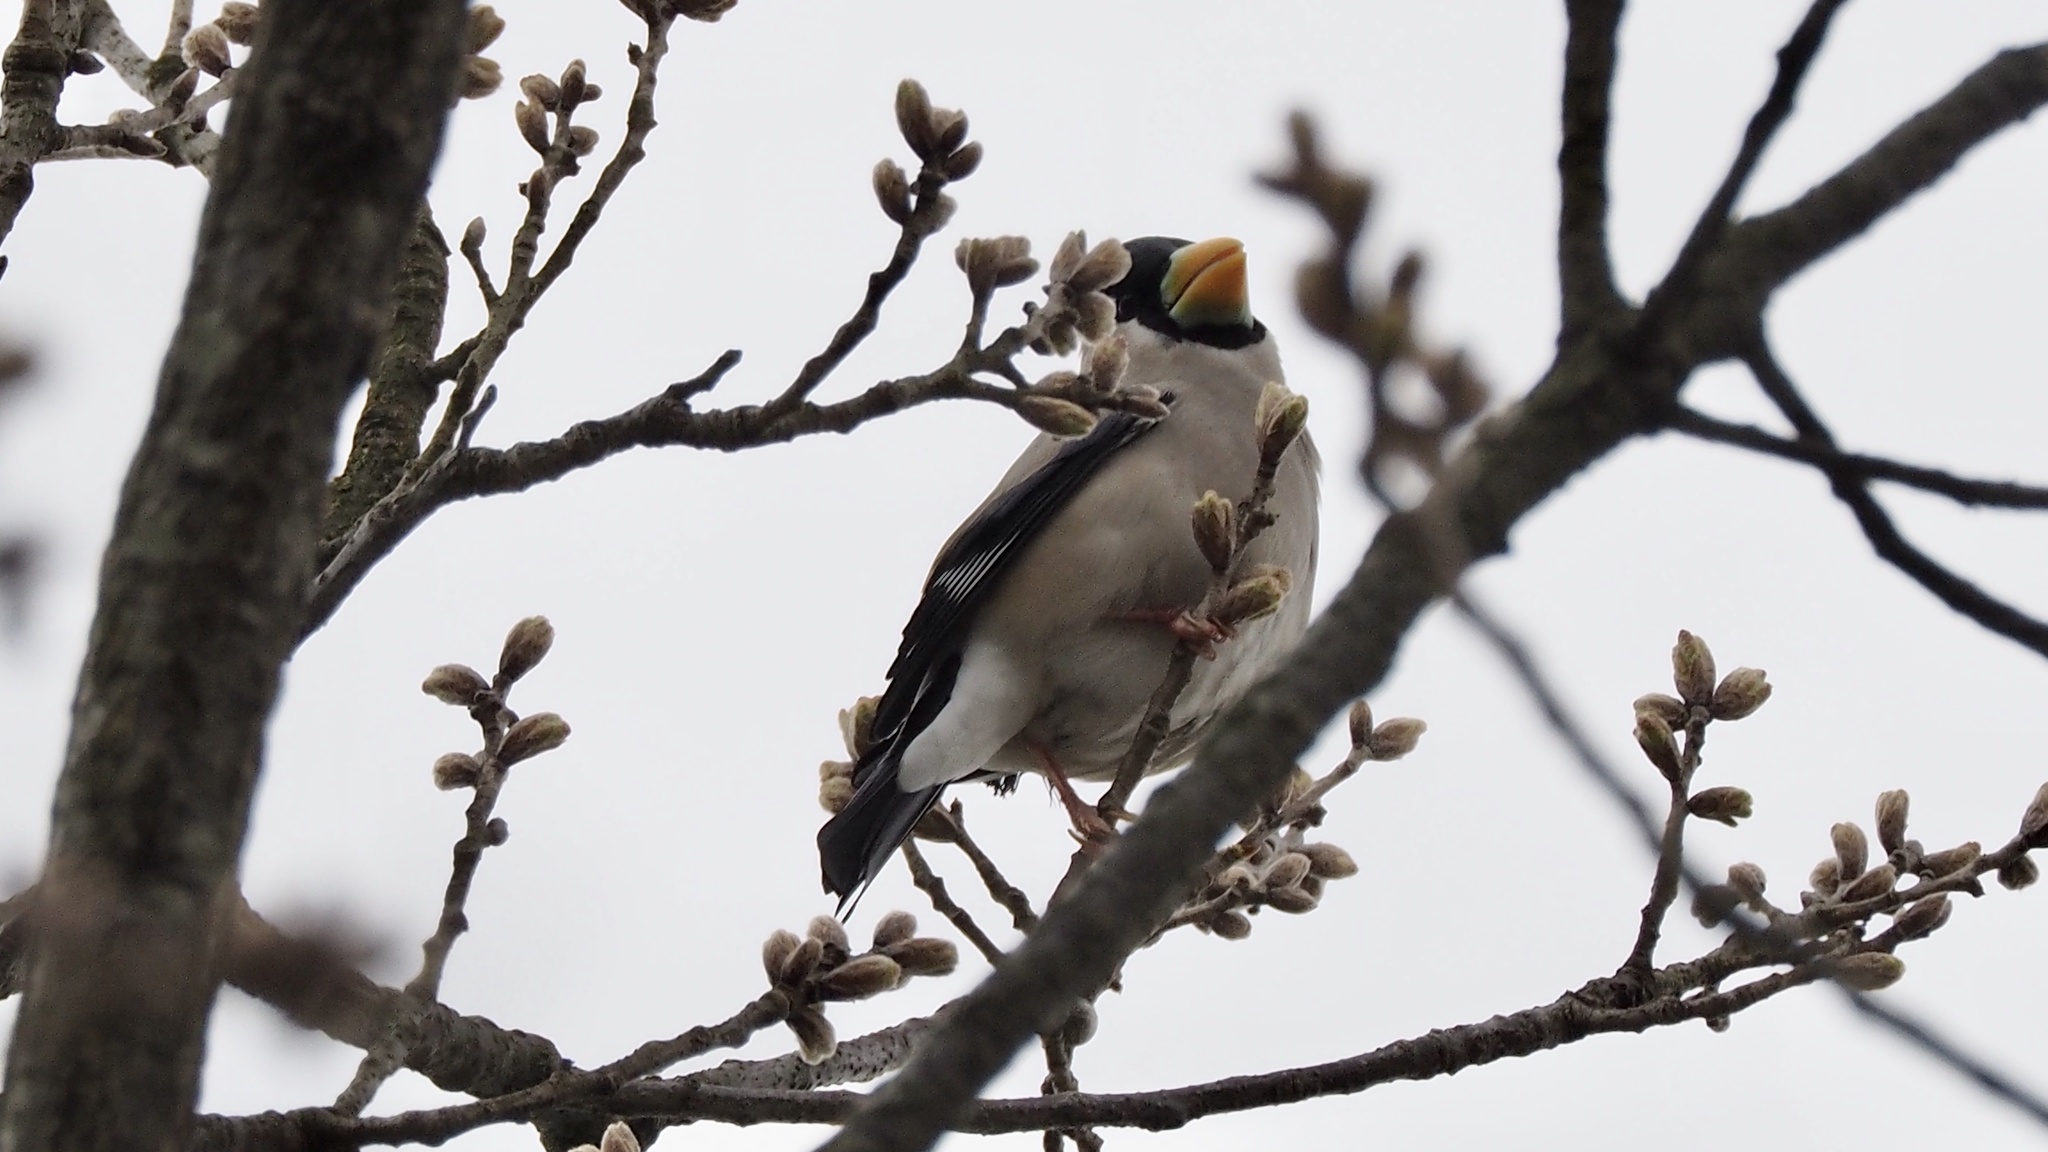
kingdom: Animalia
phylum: Chordata
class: Aves
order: Passeriformes
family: Fringillidae
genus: Eophona
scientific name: Eophona personata
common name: Japanese grosbeak
